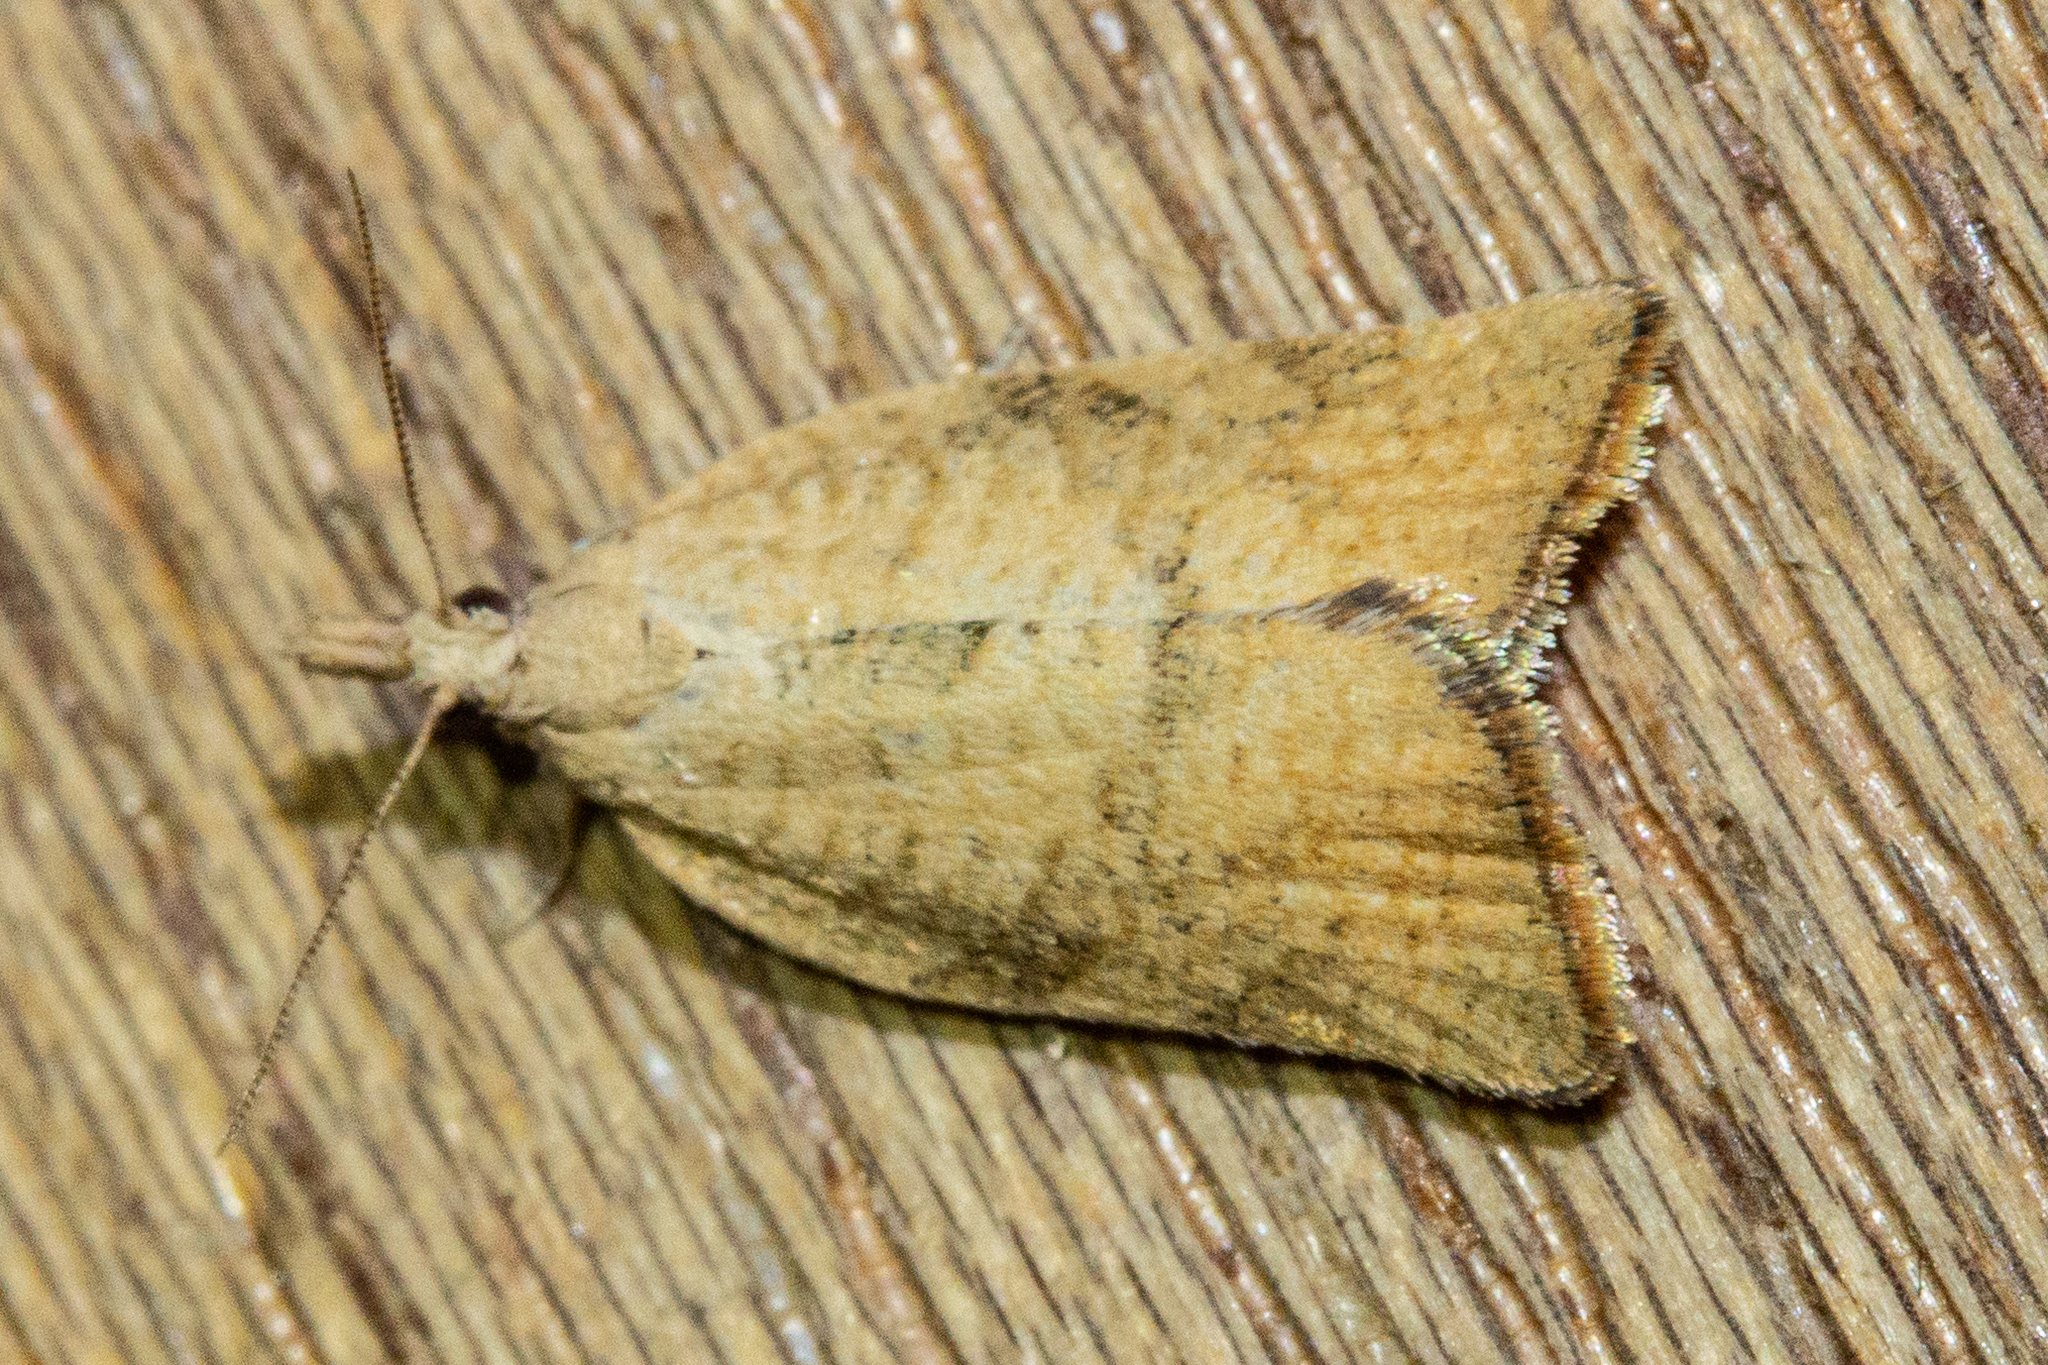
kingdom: Animalia
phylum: Arthropoda
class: Insecta
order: Lepidoptera
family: Tortricidae
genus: Catamacta
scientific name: Catamacta gavisana
